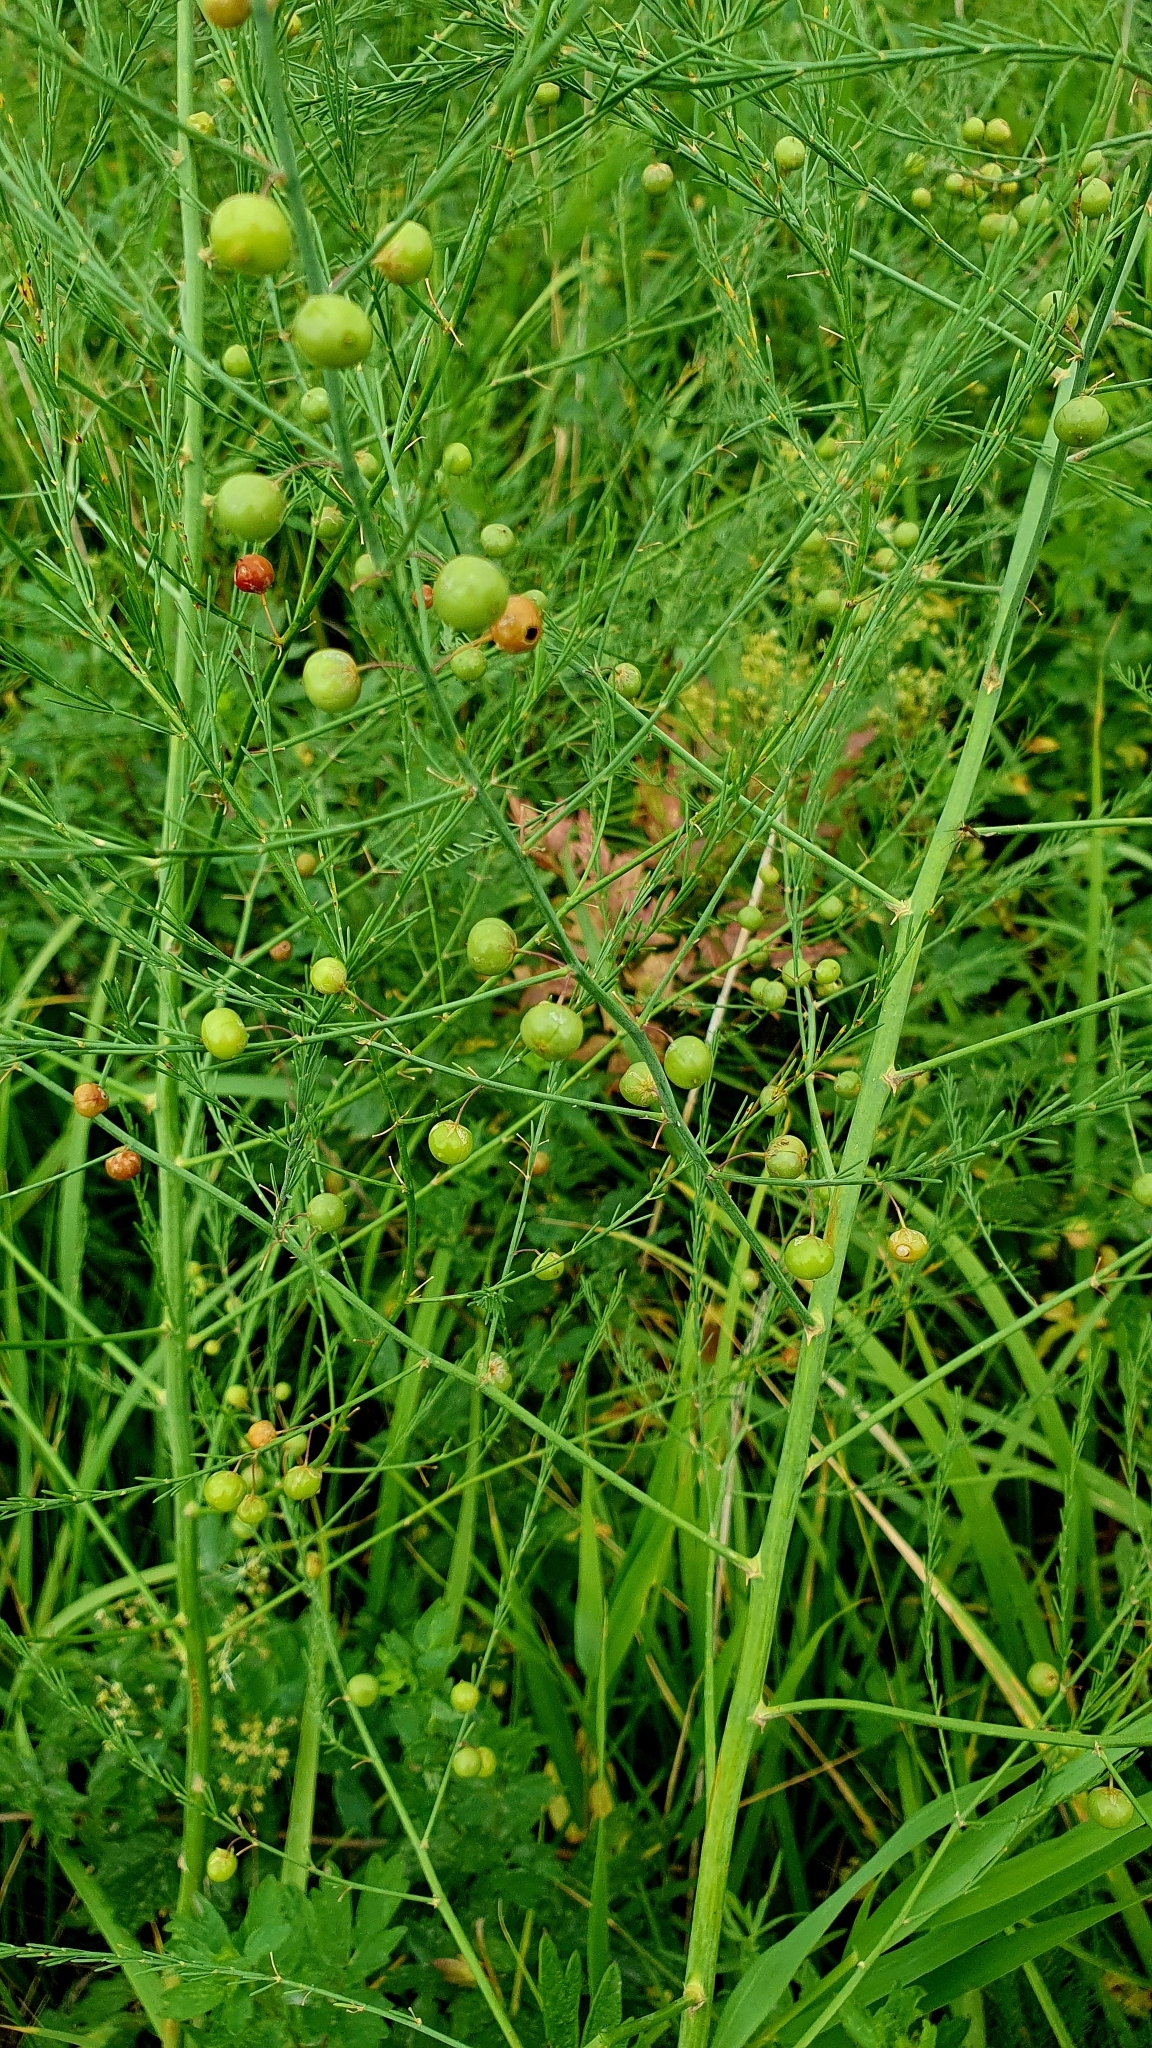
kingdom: Plantae
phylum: Tracheophyta
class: Liliopsida
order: Asparagales
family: Asparagaceae
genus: Asparagus
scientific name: Asparagus officinalis
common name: Garden asparagus
